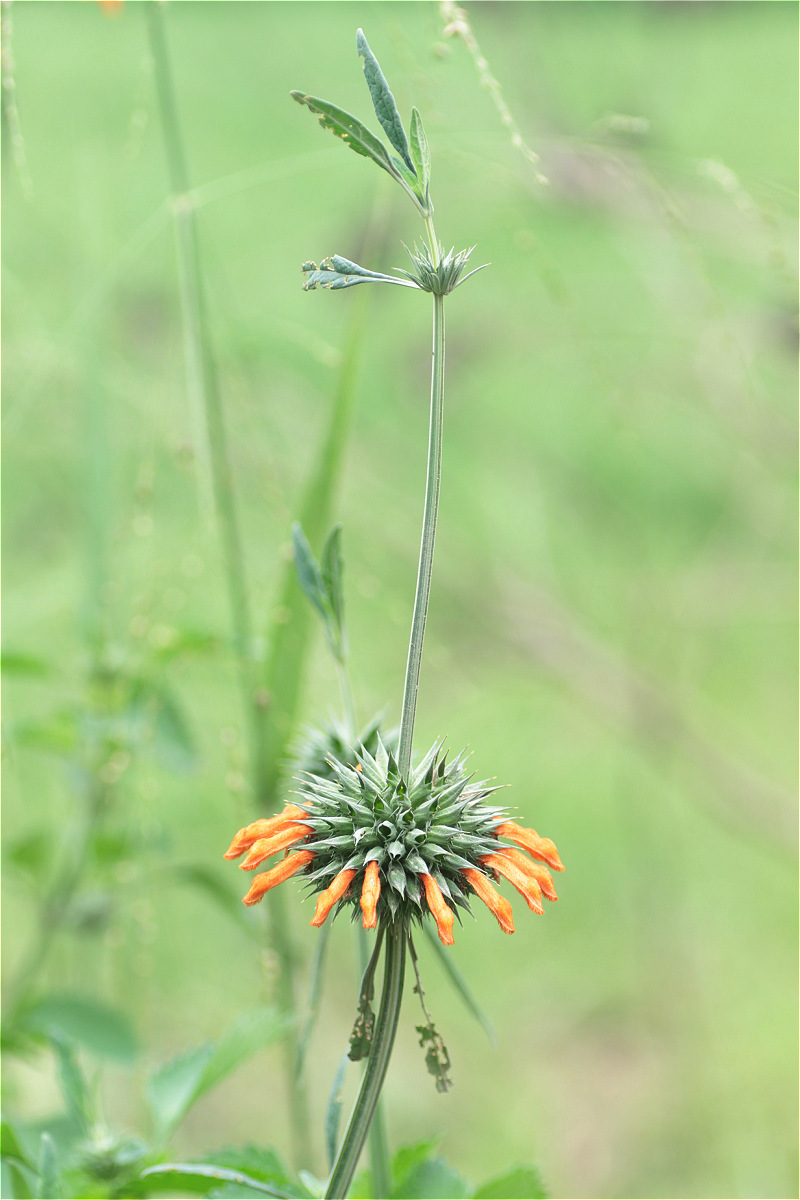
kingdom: Plantae
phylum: Tracheophyta
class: Magnoliopsida
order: Lamiales
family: Lamiaceae
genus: Leonotis
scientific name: Leonotis nepetifolia
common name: Christmas candlestick
